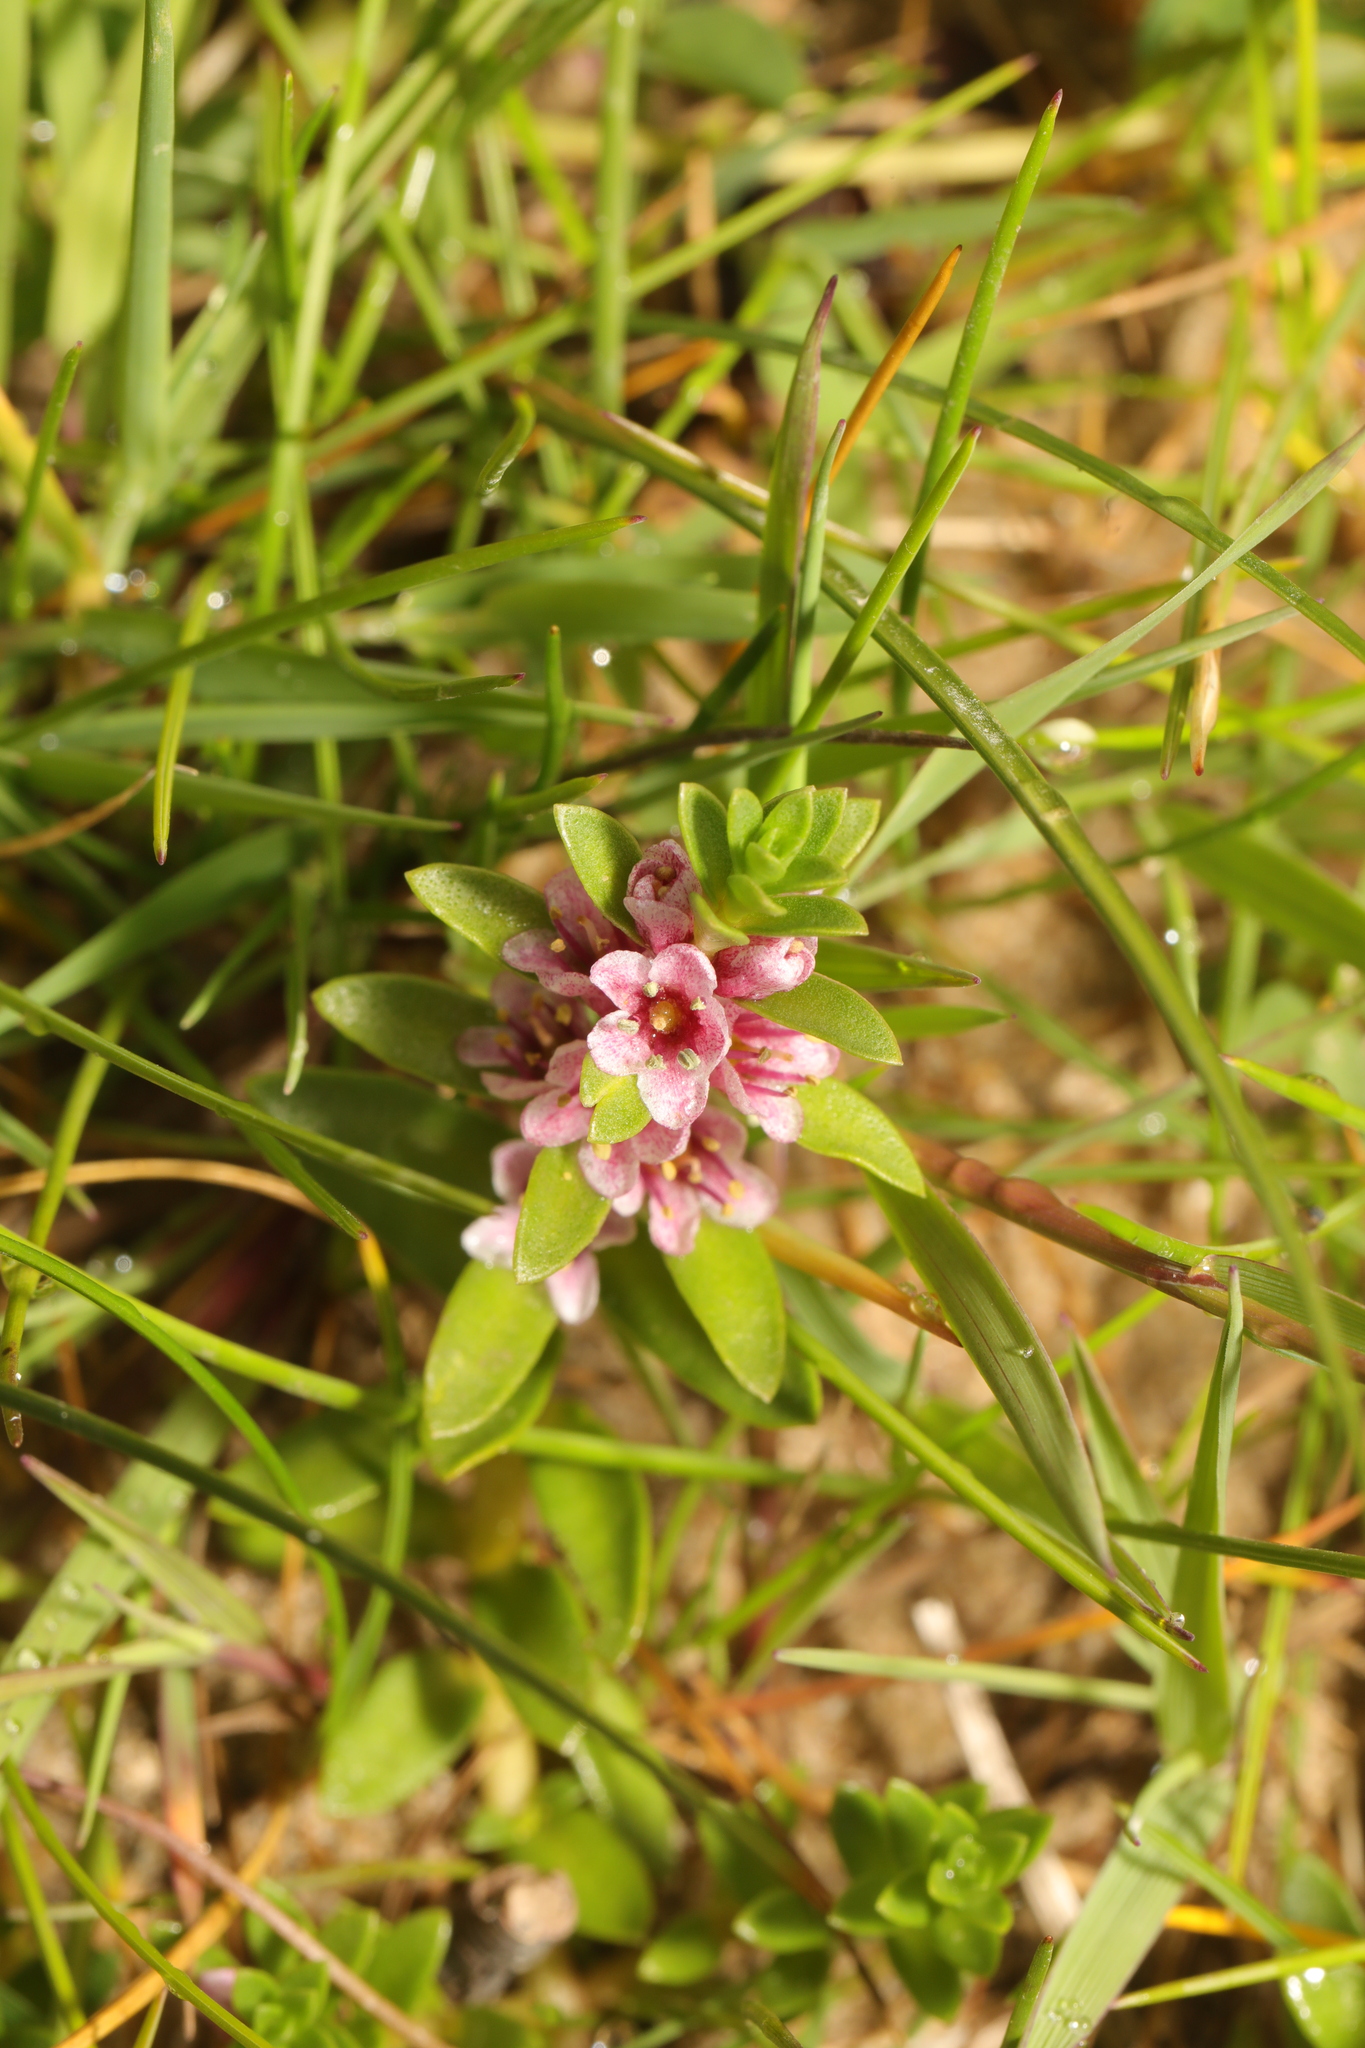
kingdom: Plantae
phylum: Tracheophyta
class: Magnoliopsida
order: Ericales
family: Primulaceae
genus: Lysimachia
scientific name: Lysimachia maritima
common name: Sea milkwort
